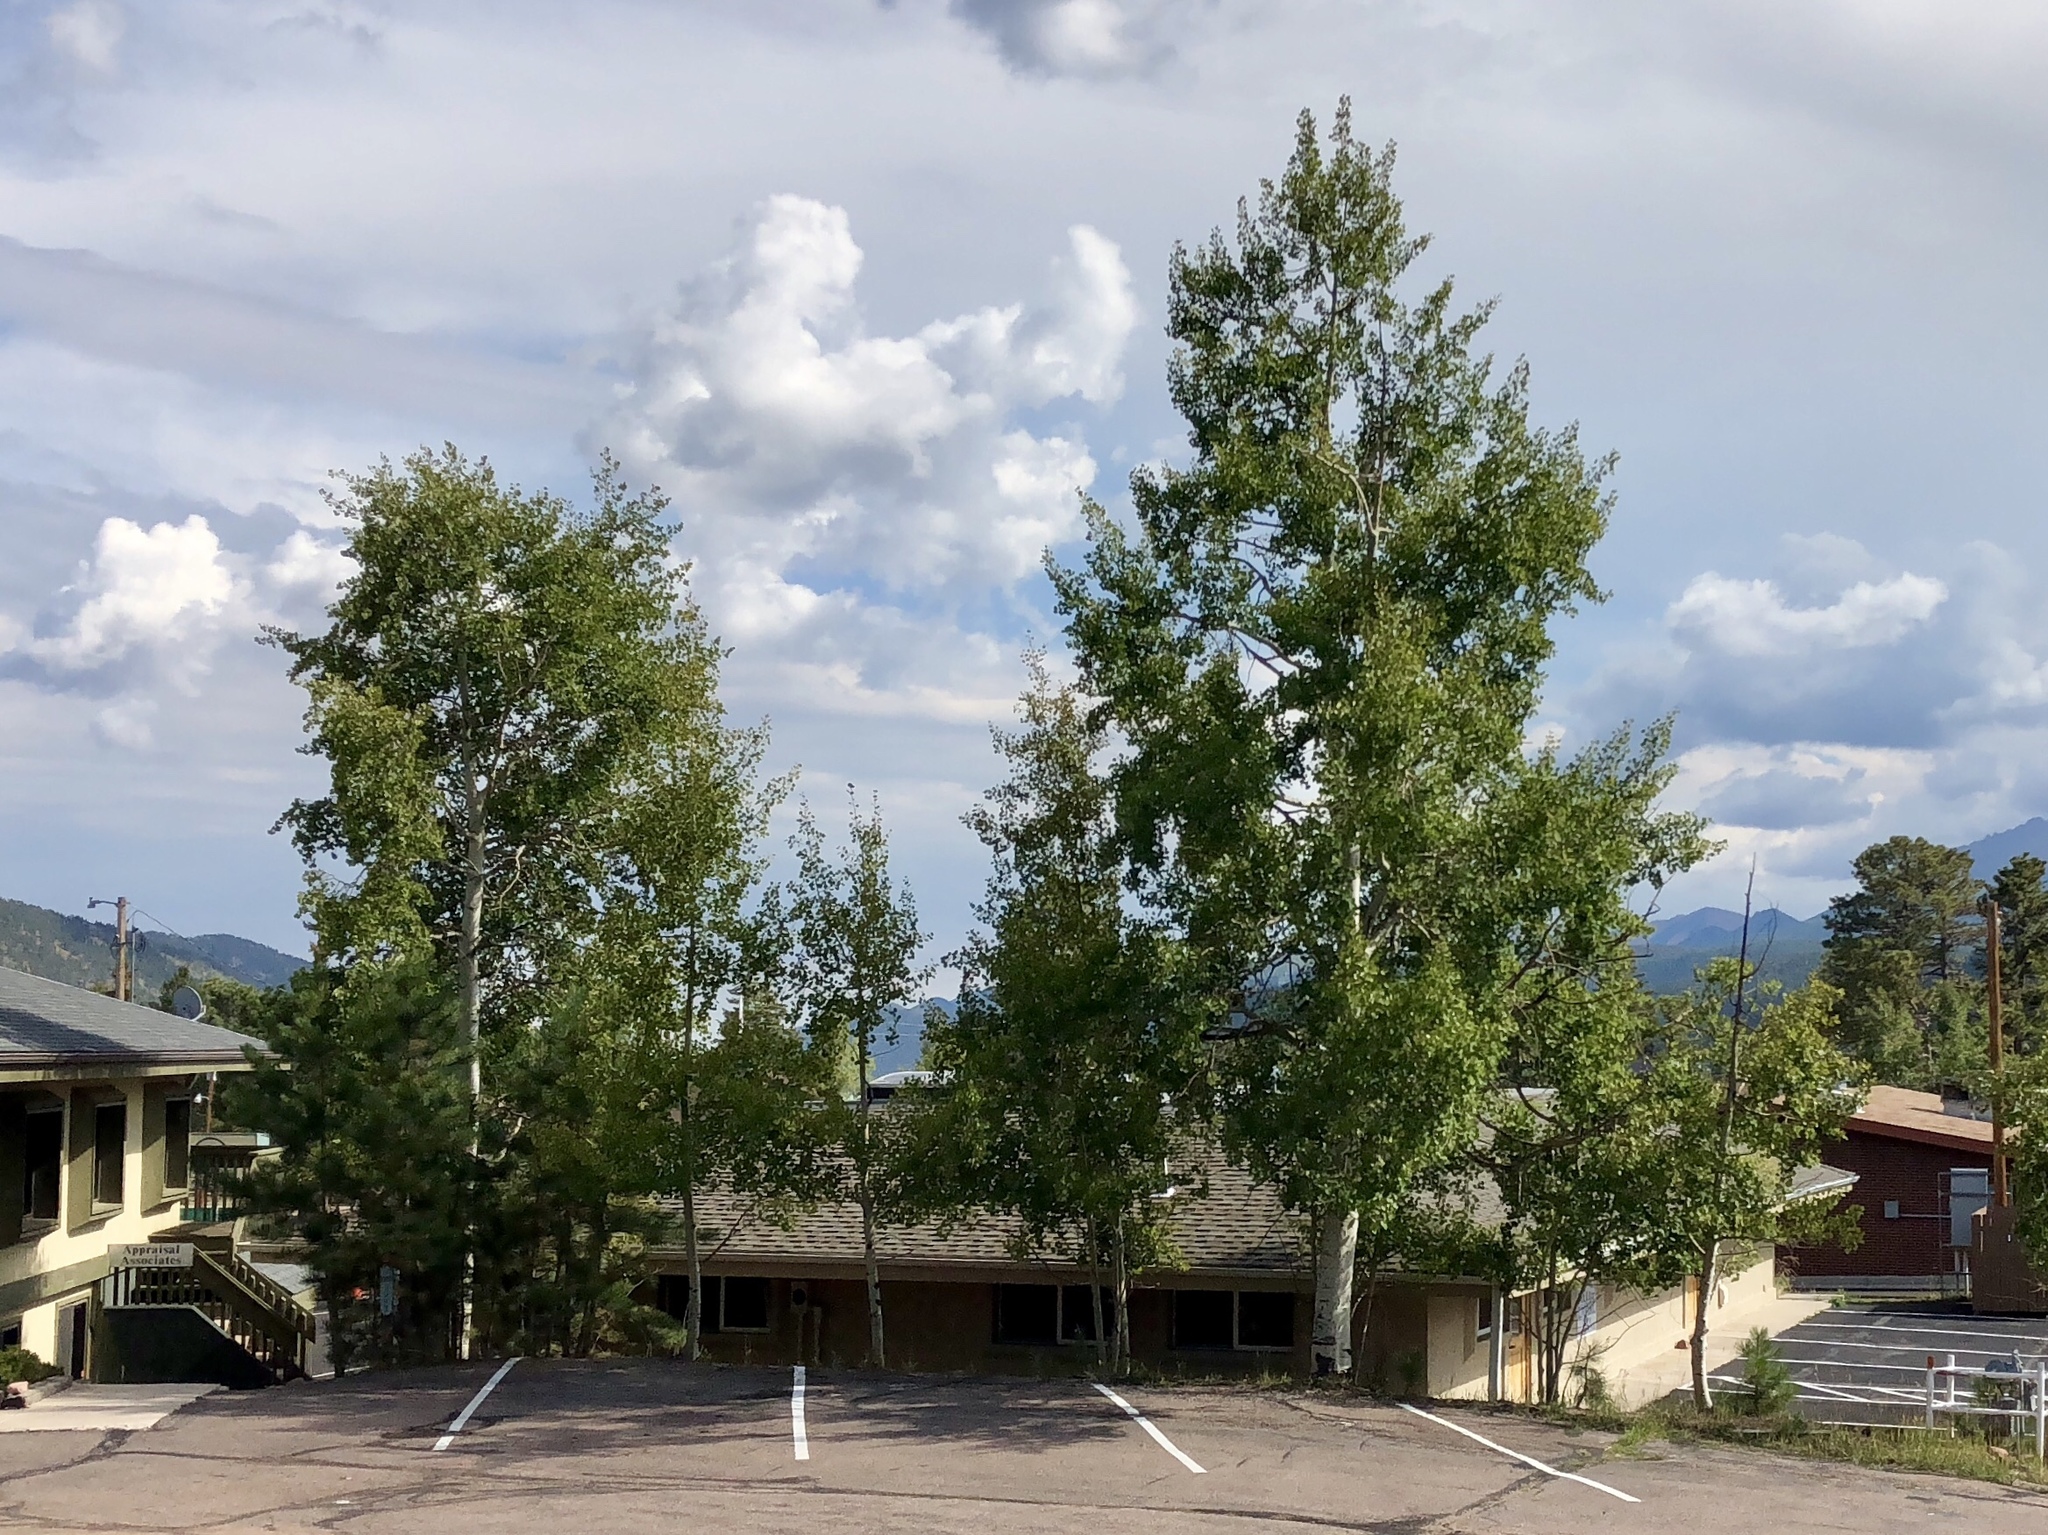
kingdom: Plantae
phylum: Tracheophyta
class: Magnoliopsida
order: Malpighiales
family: Salicaceae
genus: Populus
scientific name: Populus tremuloides
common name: Quaking aspen
